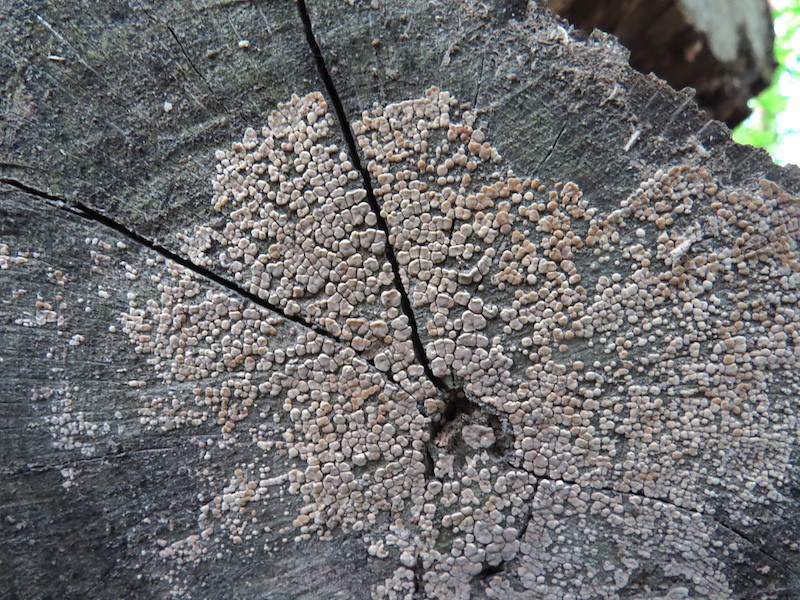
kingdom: Fungi
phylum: Basidiomycota
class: Agaricomycetes
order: Russulales
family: Stereaceae
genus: Xylobolus
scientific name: Xylobolus frustulatus
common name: Ceramic parchment
